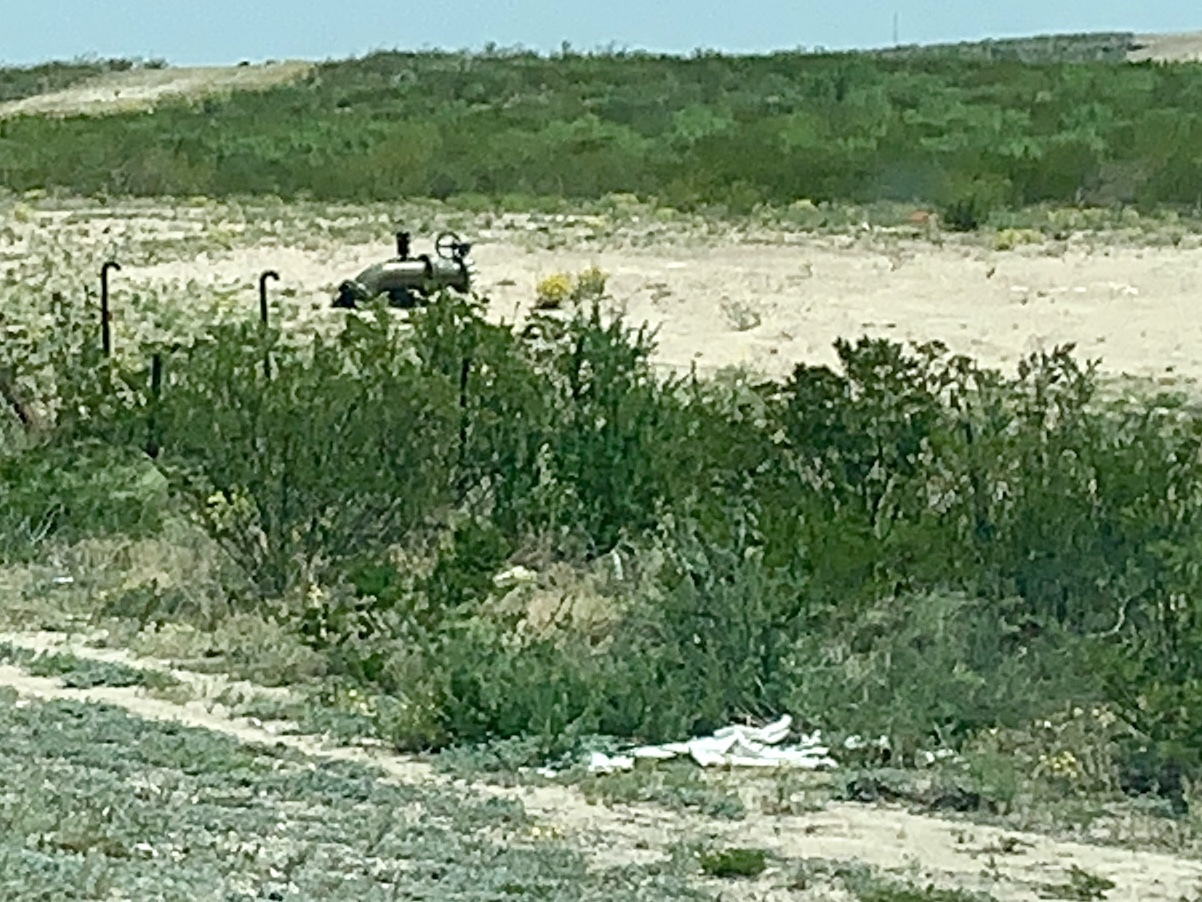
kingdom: Plantae
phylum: Tracheophyta
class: Magnoliopsida
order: Zygophyllales
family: Zygophyllaceae
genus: Larrea
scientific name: Larrea tridentata
